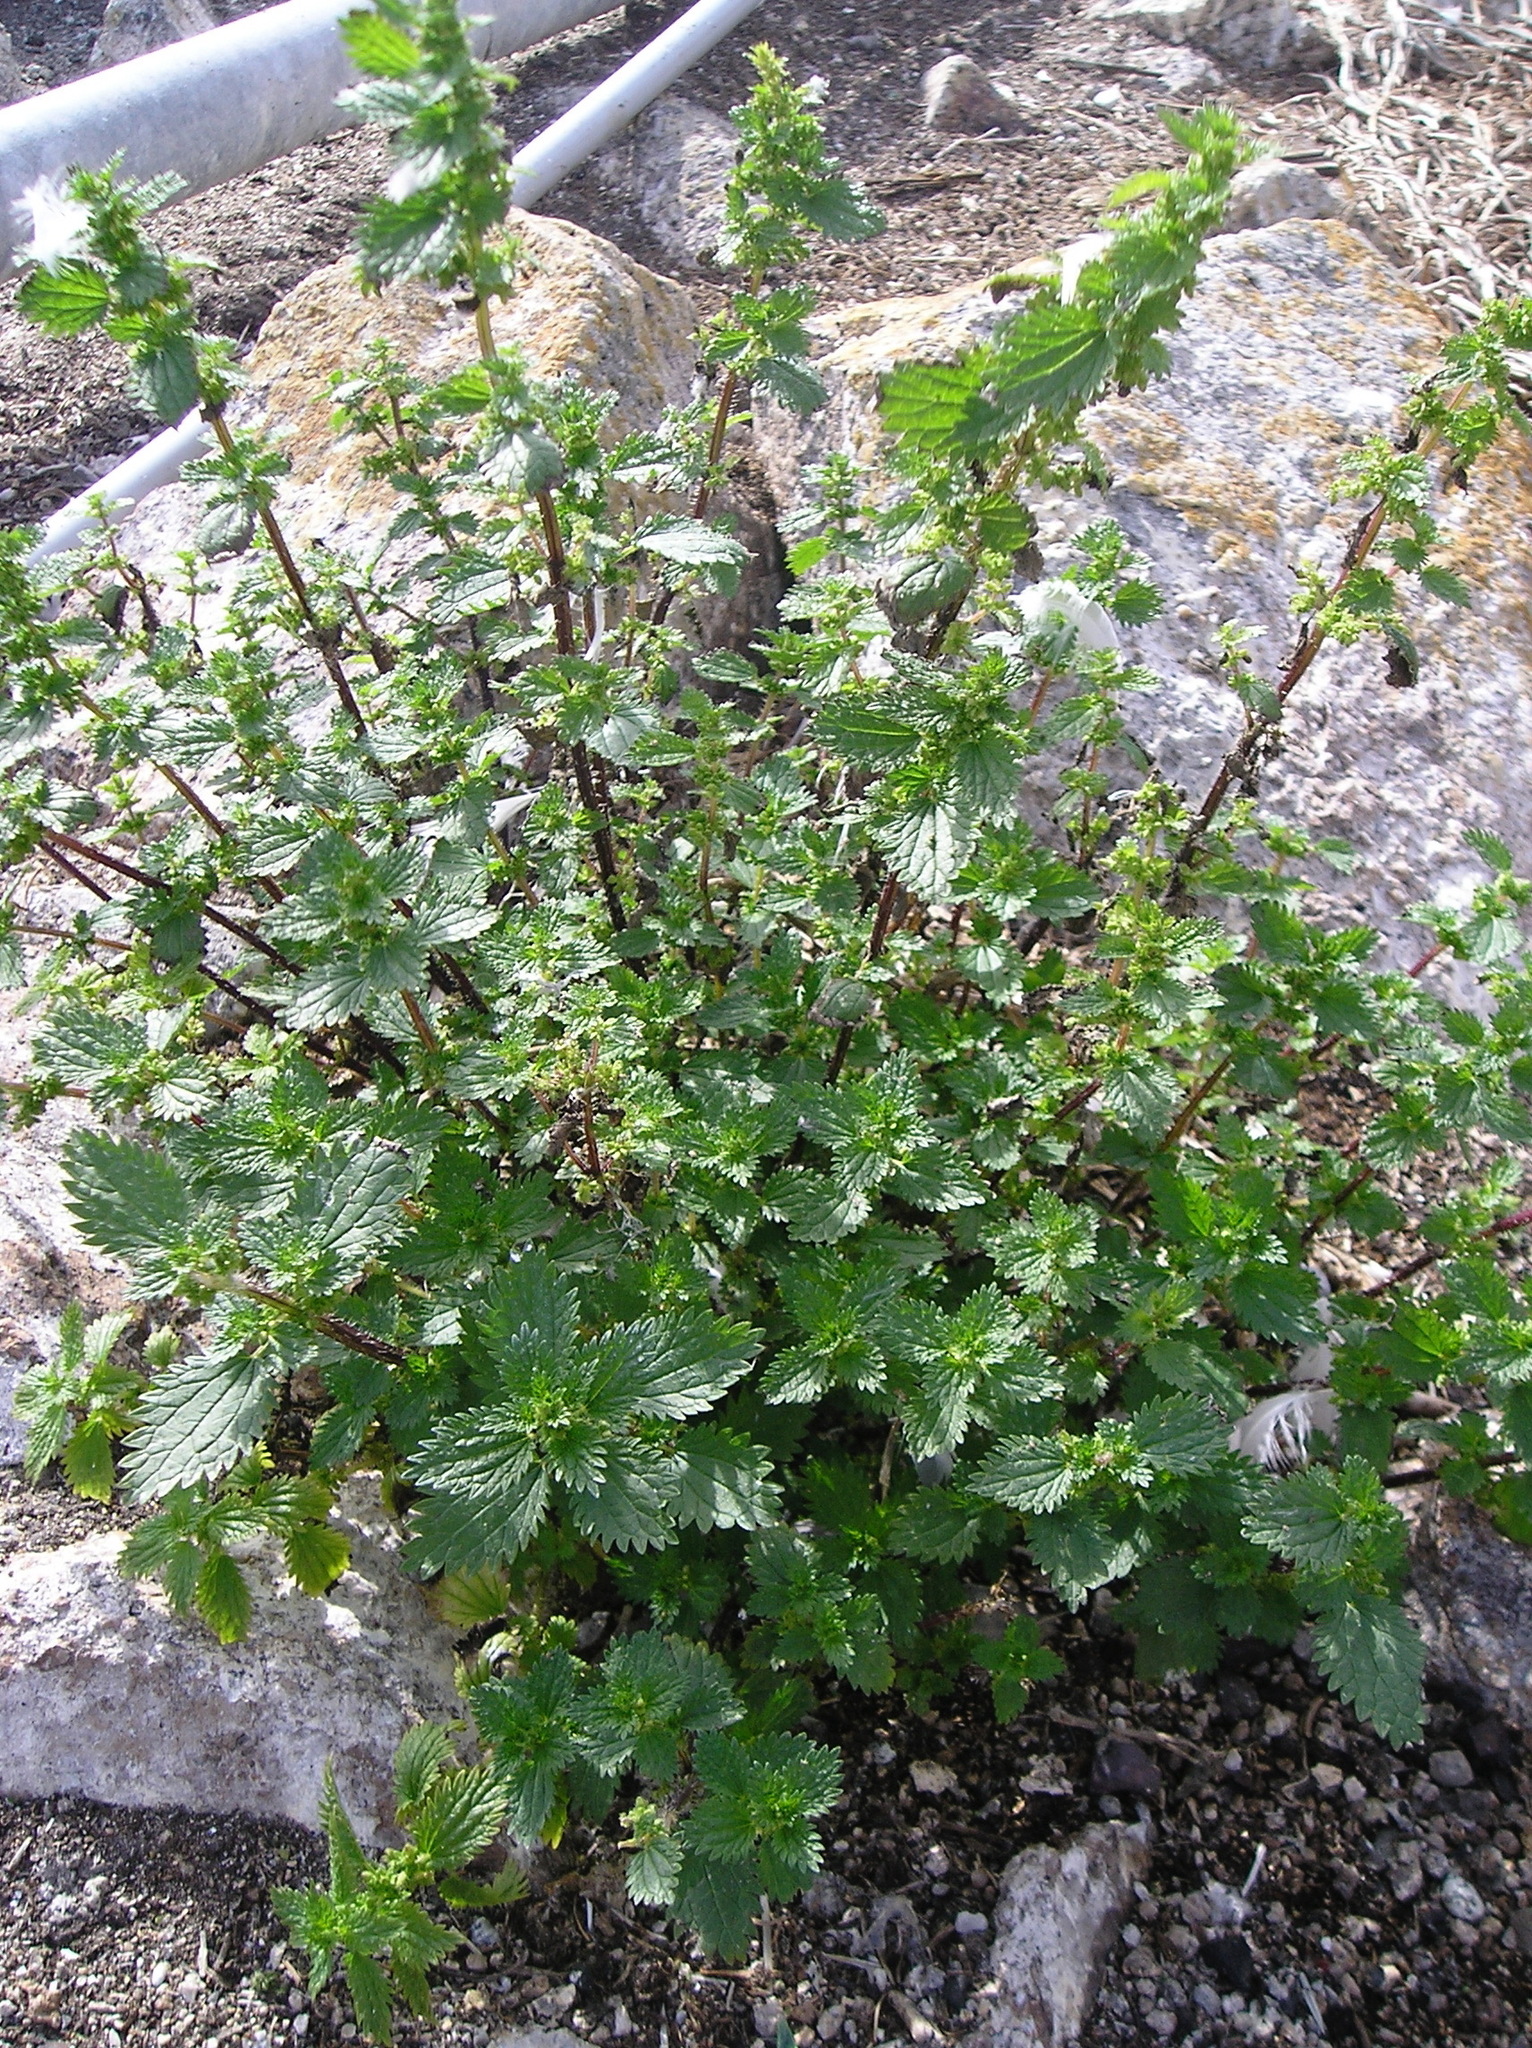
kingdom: Plantae
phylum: Tracheophyta
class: Magnoliopsida
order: Rosales
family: Urticaceae
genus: Urtica
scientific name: Urtica urens
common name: Dwarf nettle
